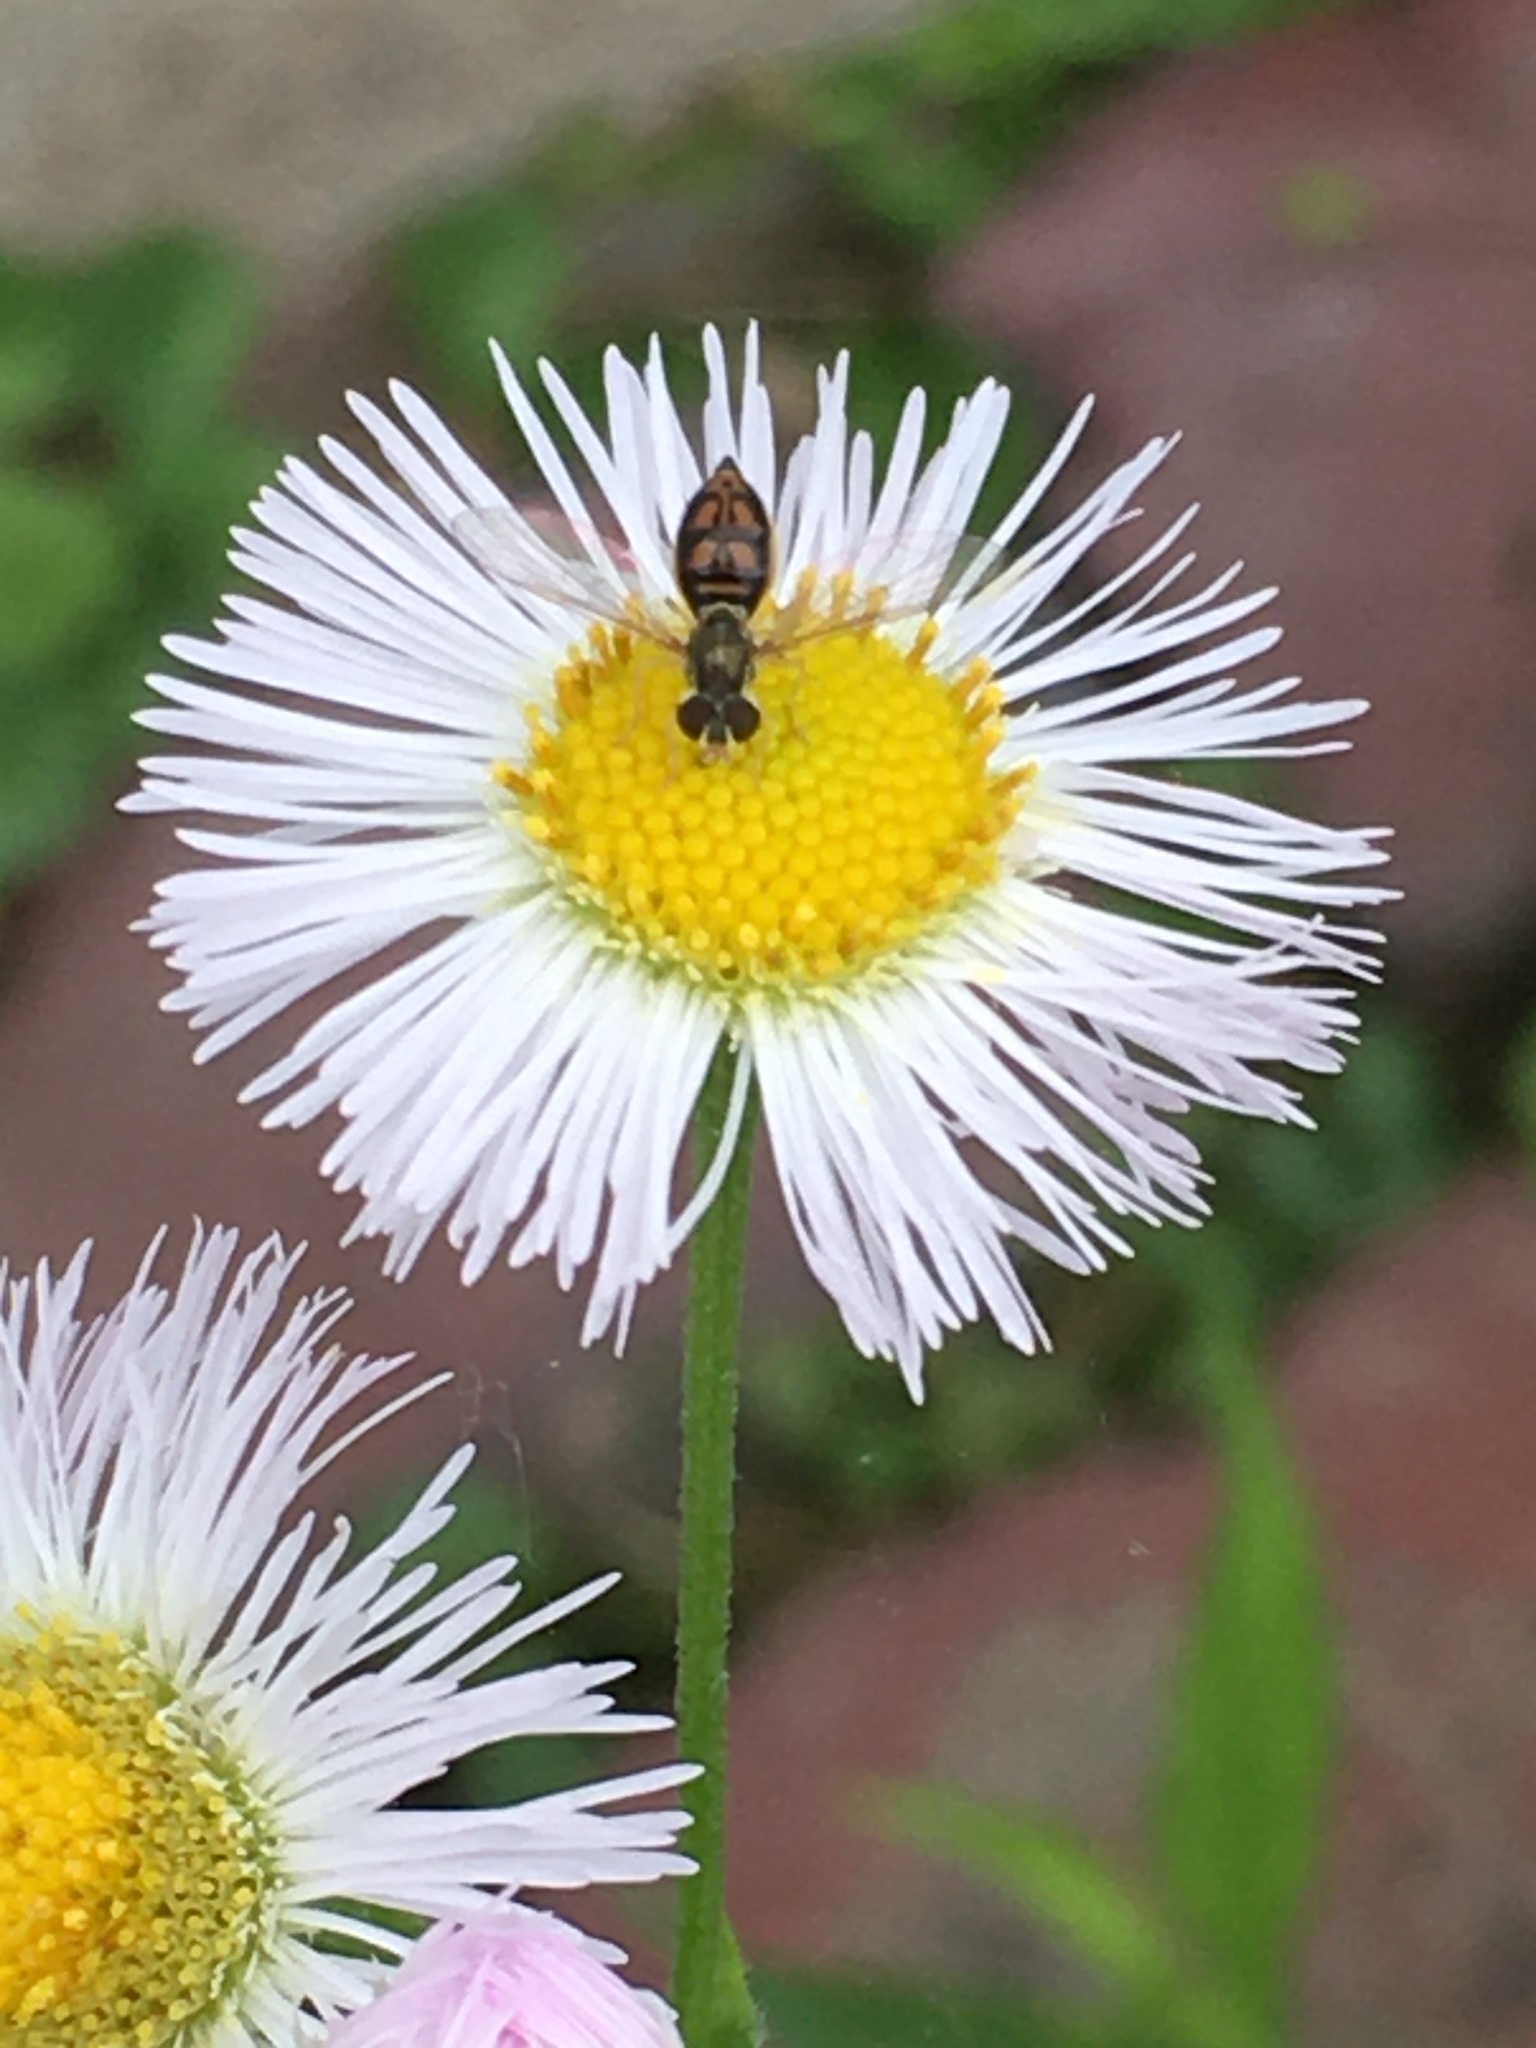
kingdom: Animalia
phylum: Arthropoda
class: Insecta
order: Diptera
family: Syrphidae
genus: Toxomerus
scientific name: Toxomerus marginatus
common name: Syrphid fly
